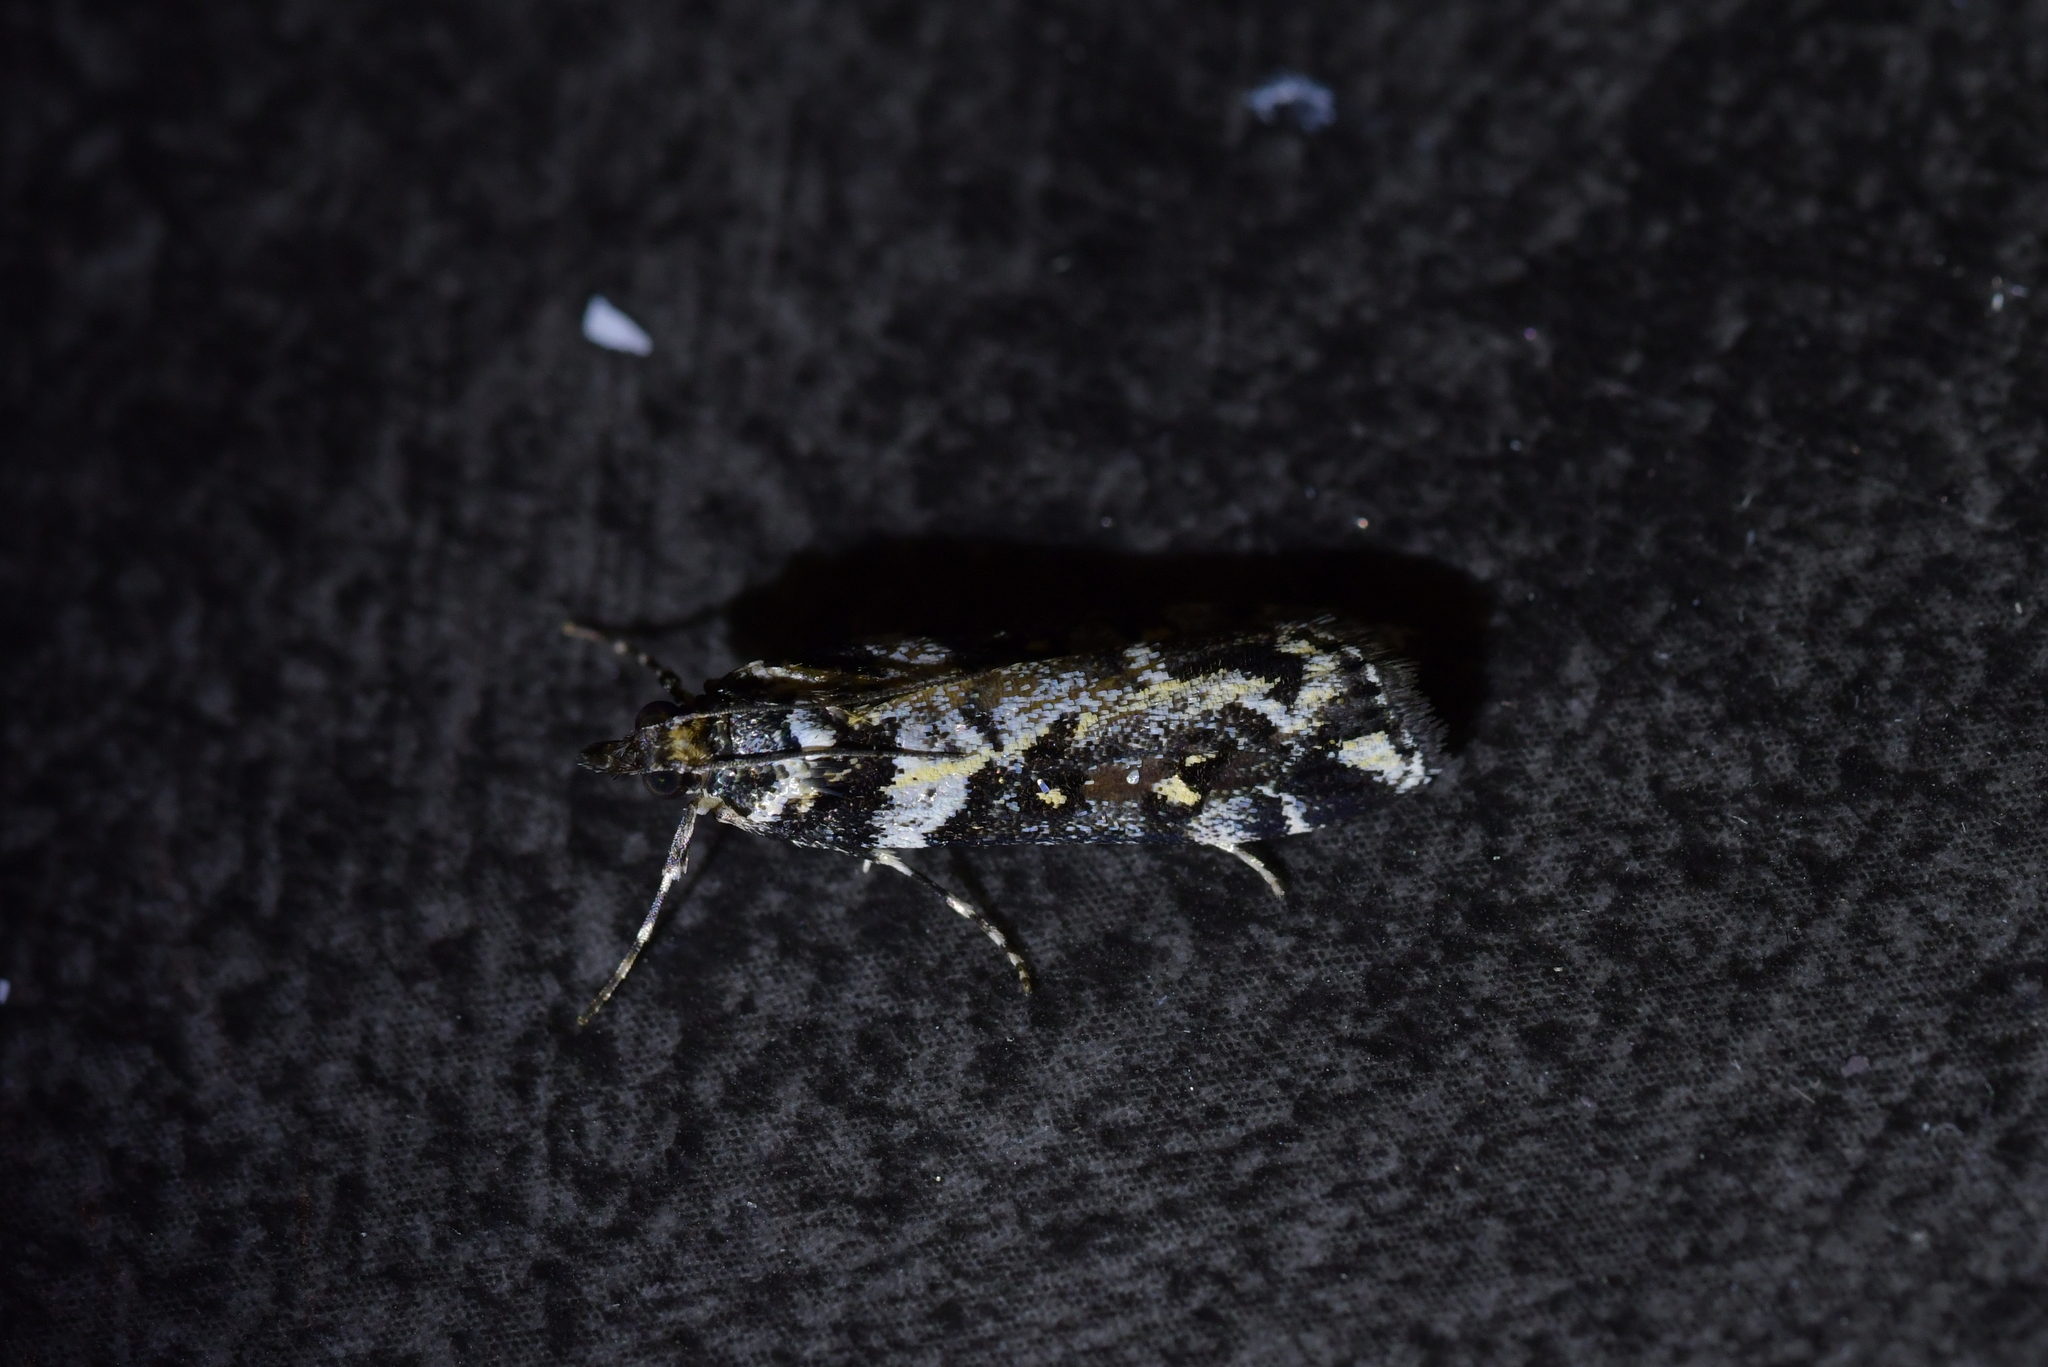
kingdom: Animalia
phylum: Arthropoda
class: Insecta
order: Lepidoptera
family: Crambidae
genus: Eudonia
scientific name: Eudonia diphtheralis
